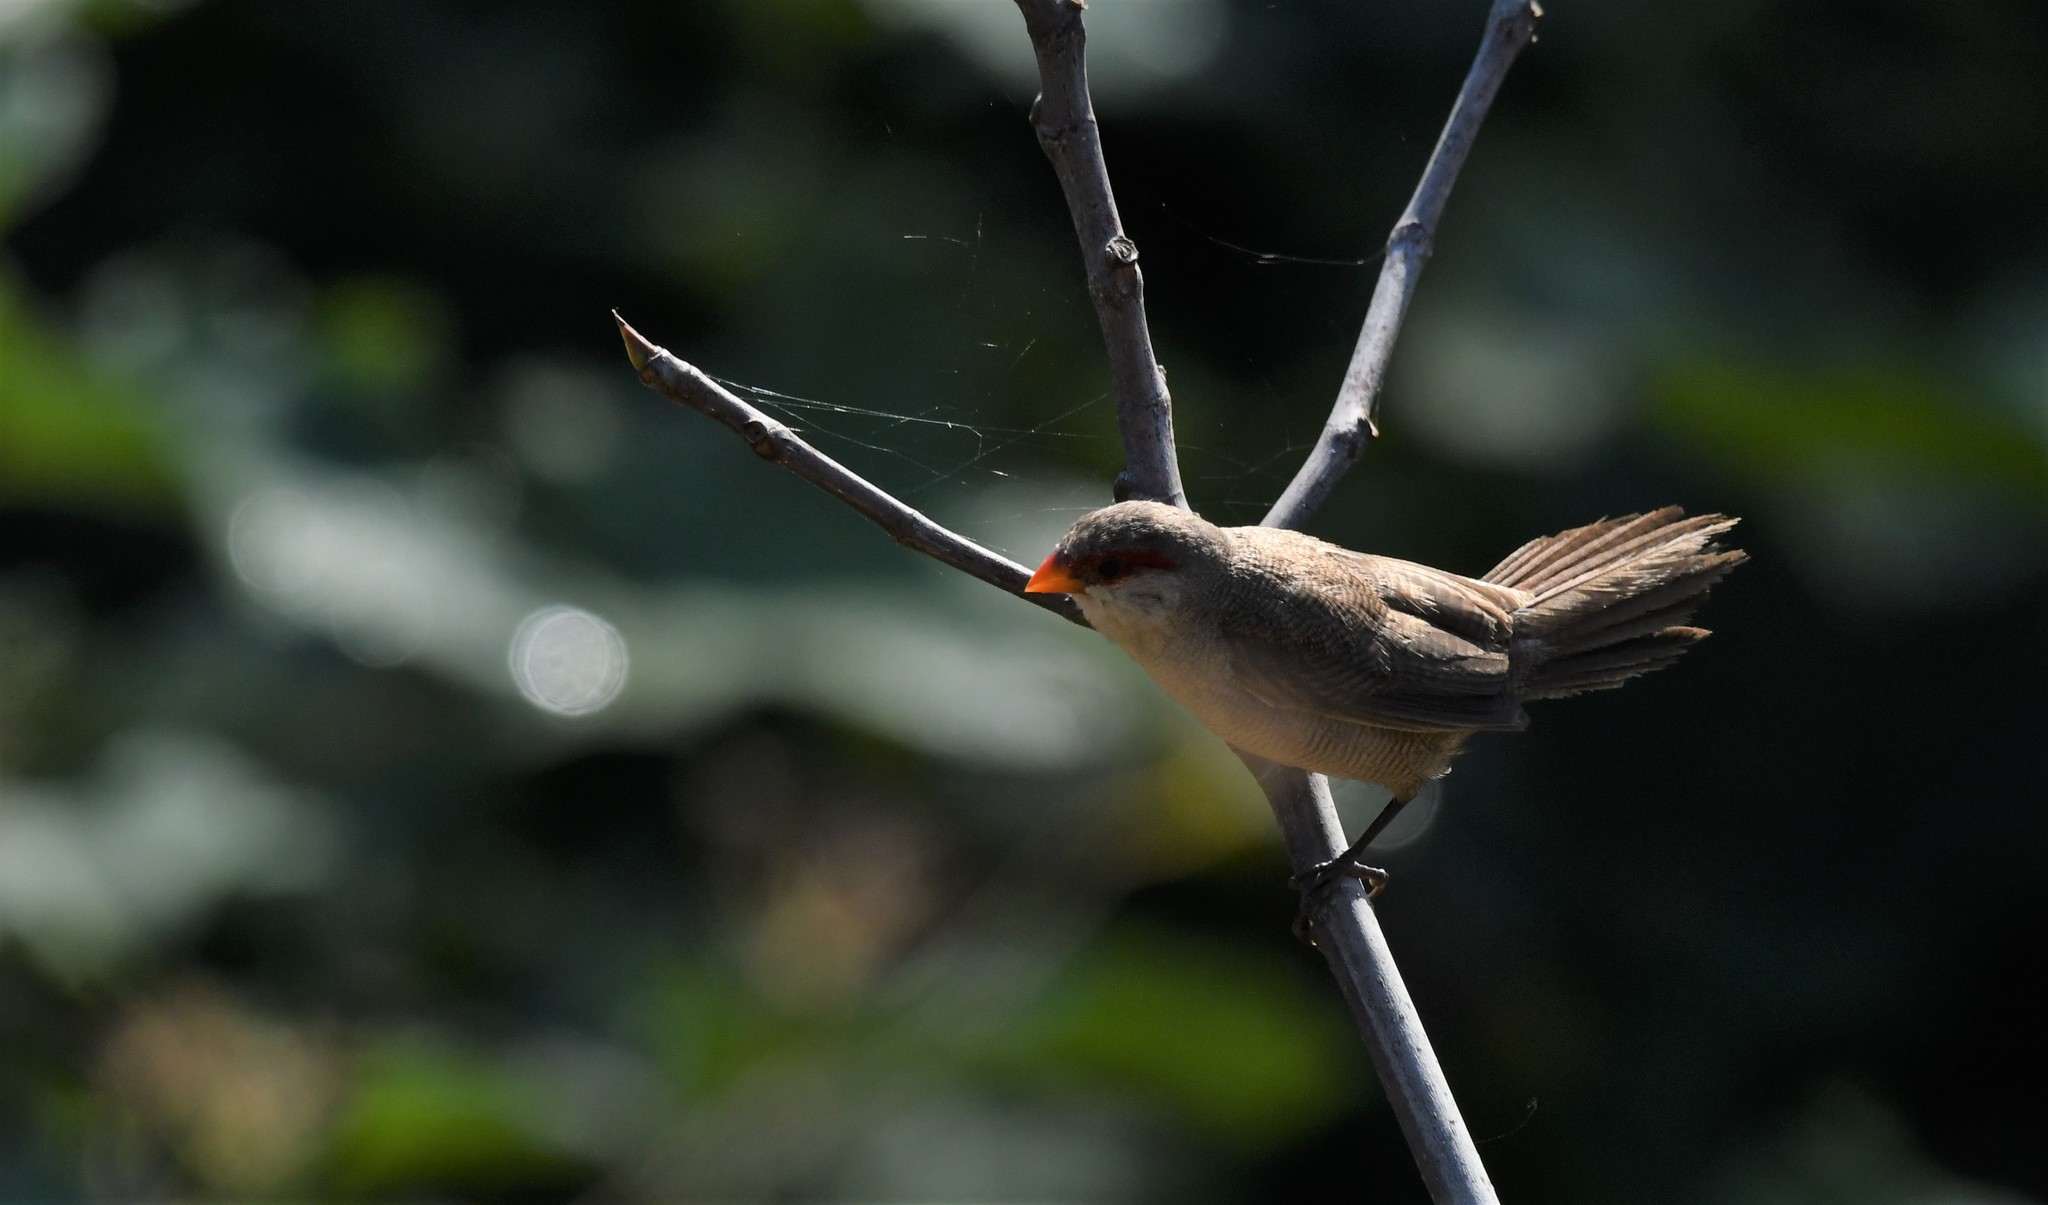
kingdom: Animalia
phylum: Chordata
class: Aves
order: Passeriformes
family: Estrildidae
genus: Estrilda
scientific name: Estrilda astrild
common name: Common waxbill
